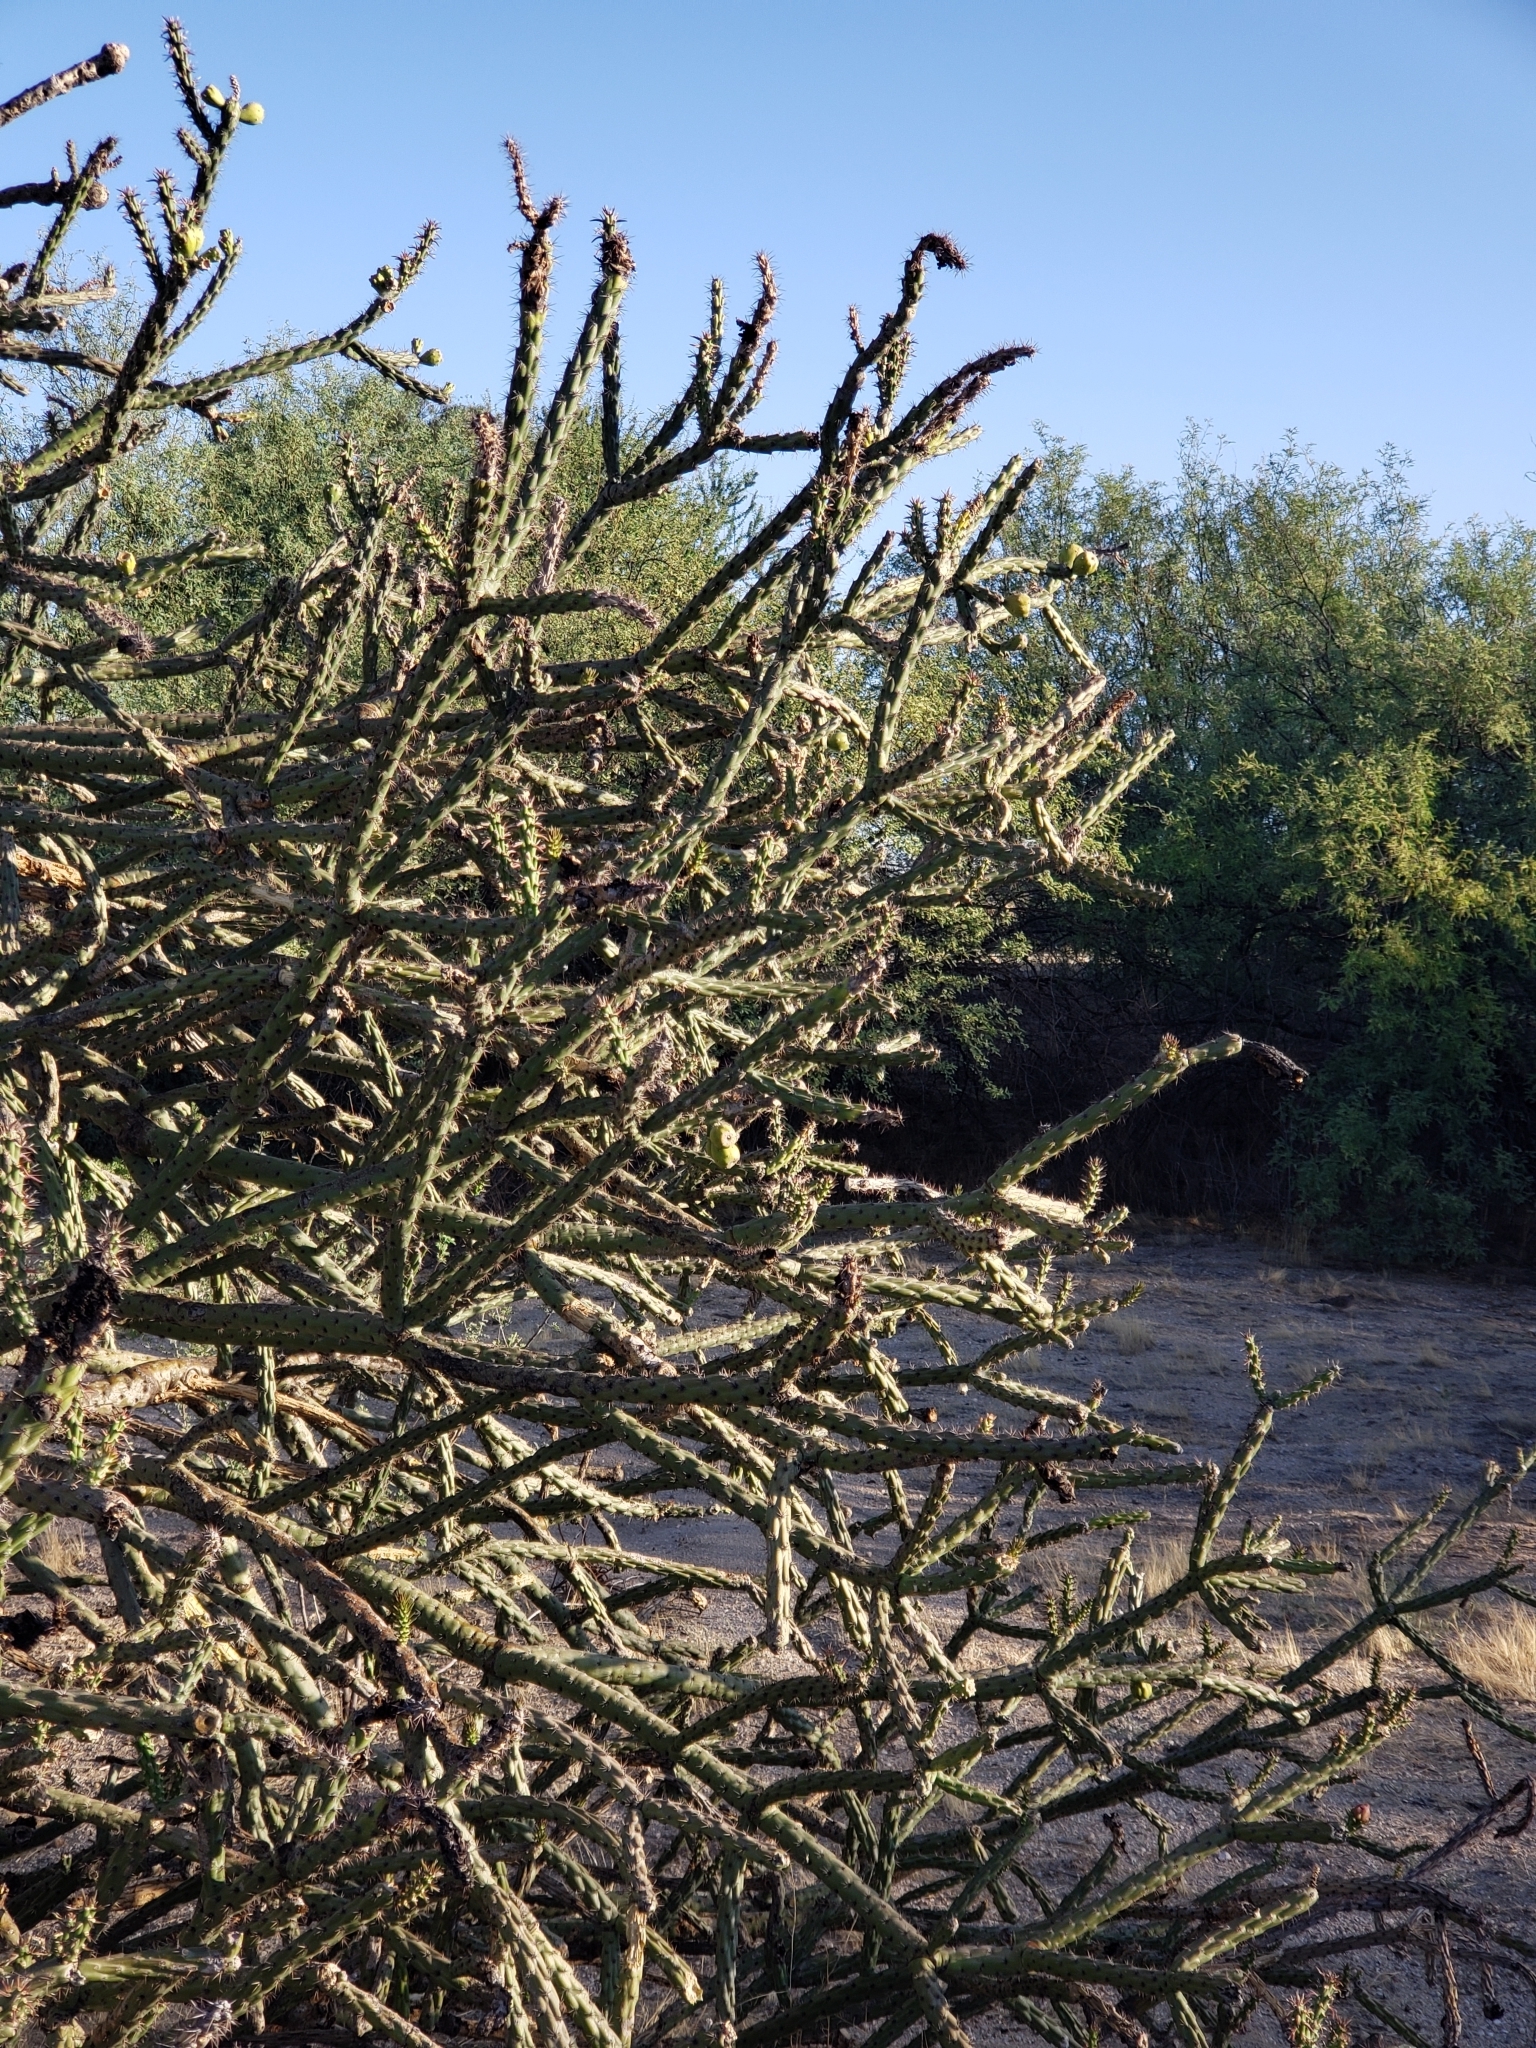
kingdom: Plantae
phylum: Tracheophyta
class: Magnoliopsida
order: Caryophyllales
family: Cactaceae
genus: Cylindropuntia
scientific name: Cylindropuntia thurberi
